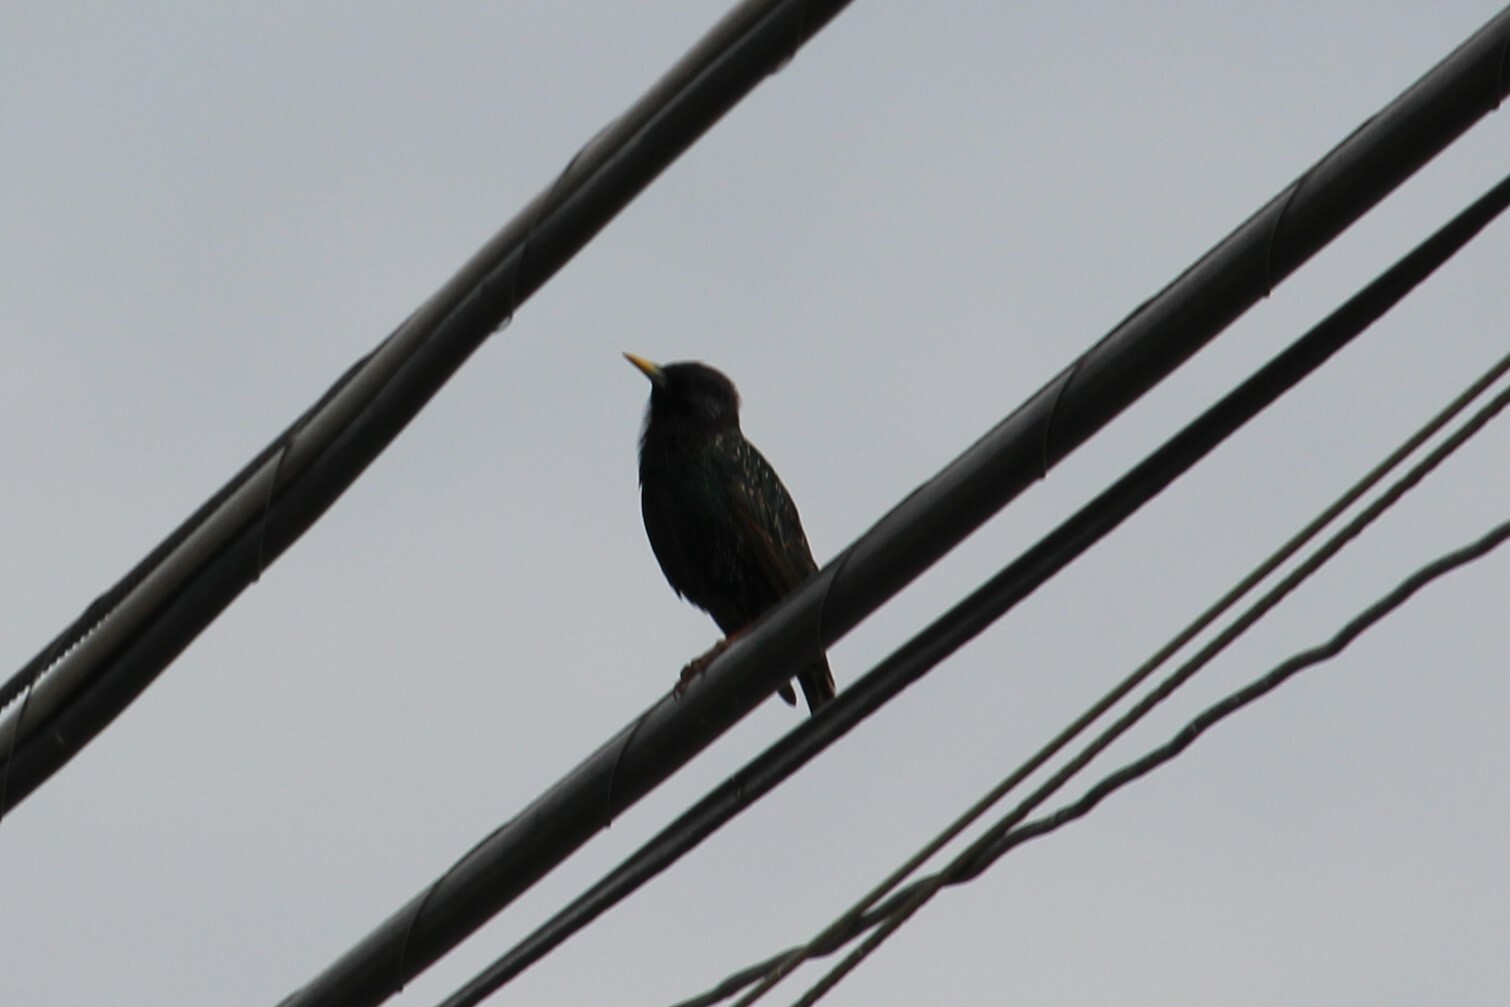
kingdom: Animalia
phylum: Chordata
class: Aves
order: Passeriformes
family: Sturnidae
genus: Sturnus
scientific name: Sturnus vulgaris
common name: Common starling
